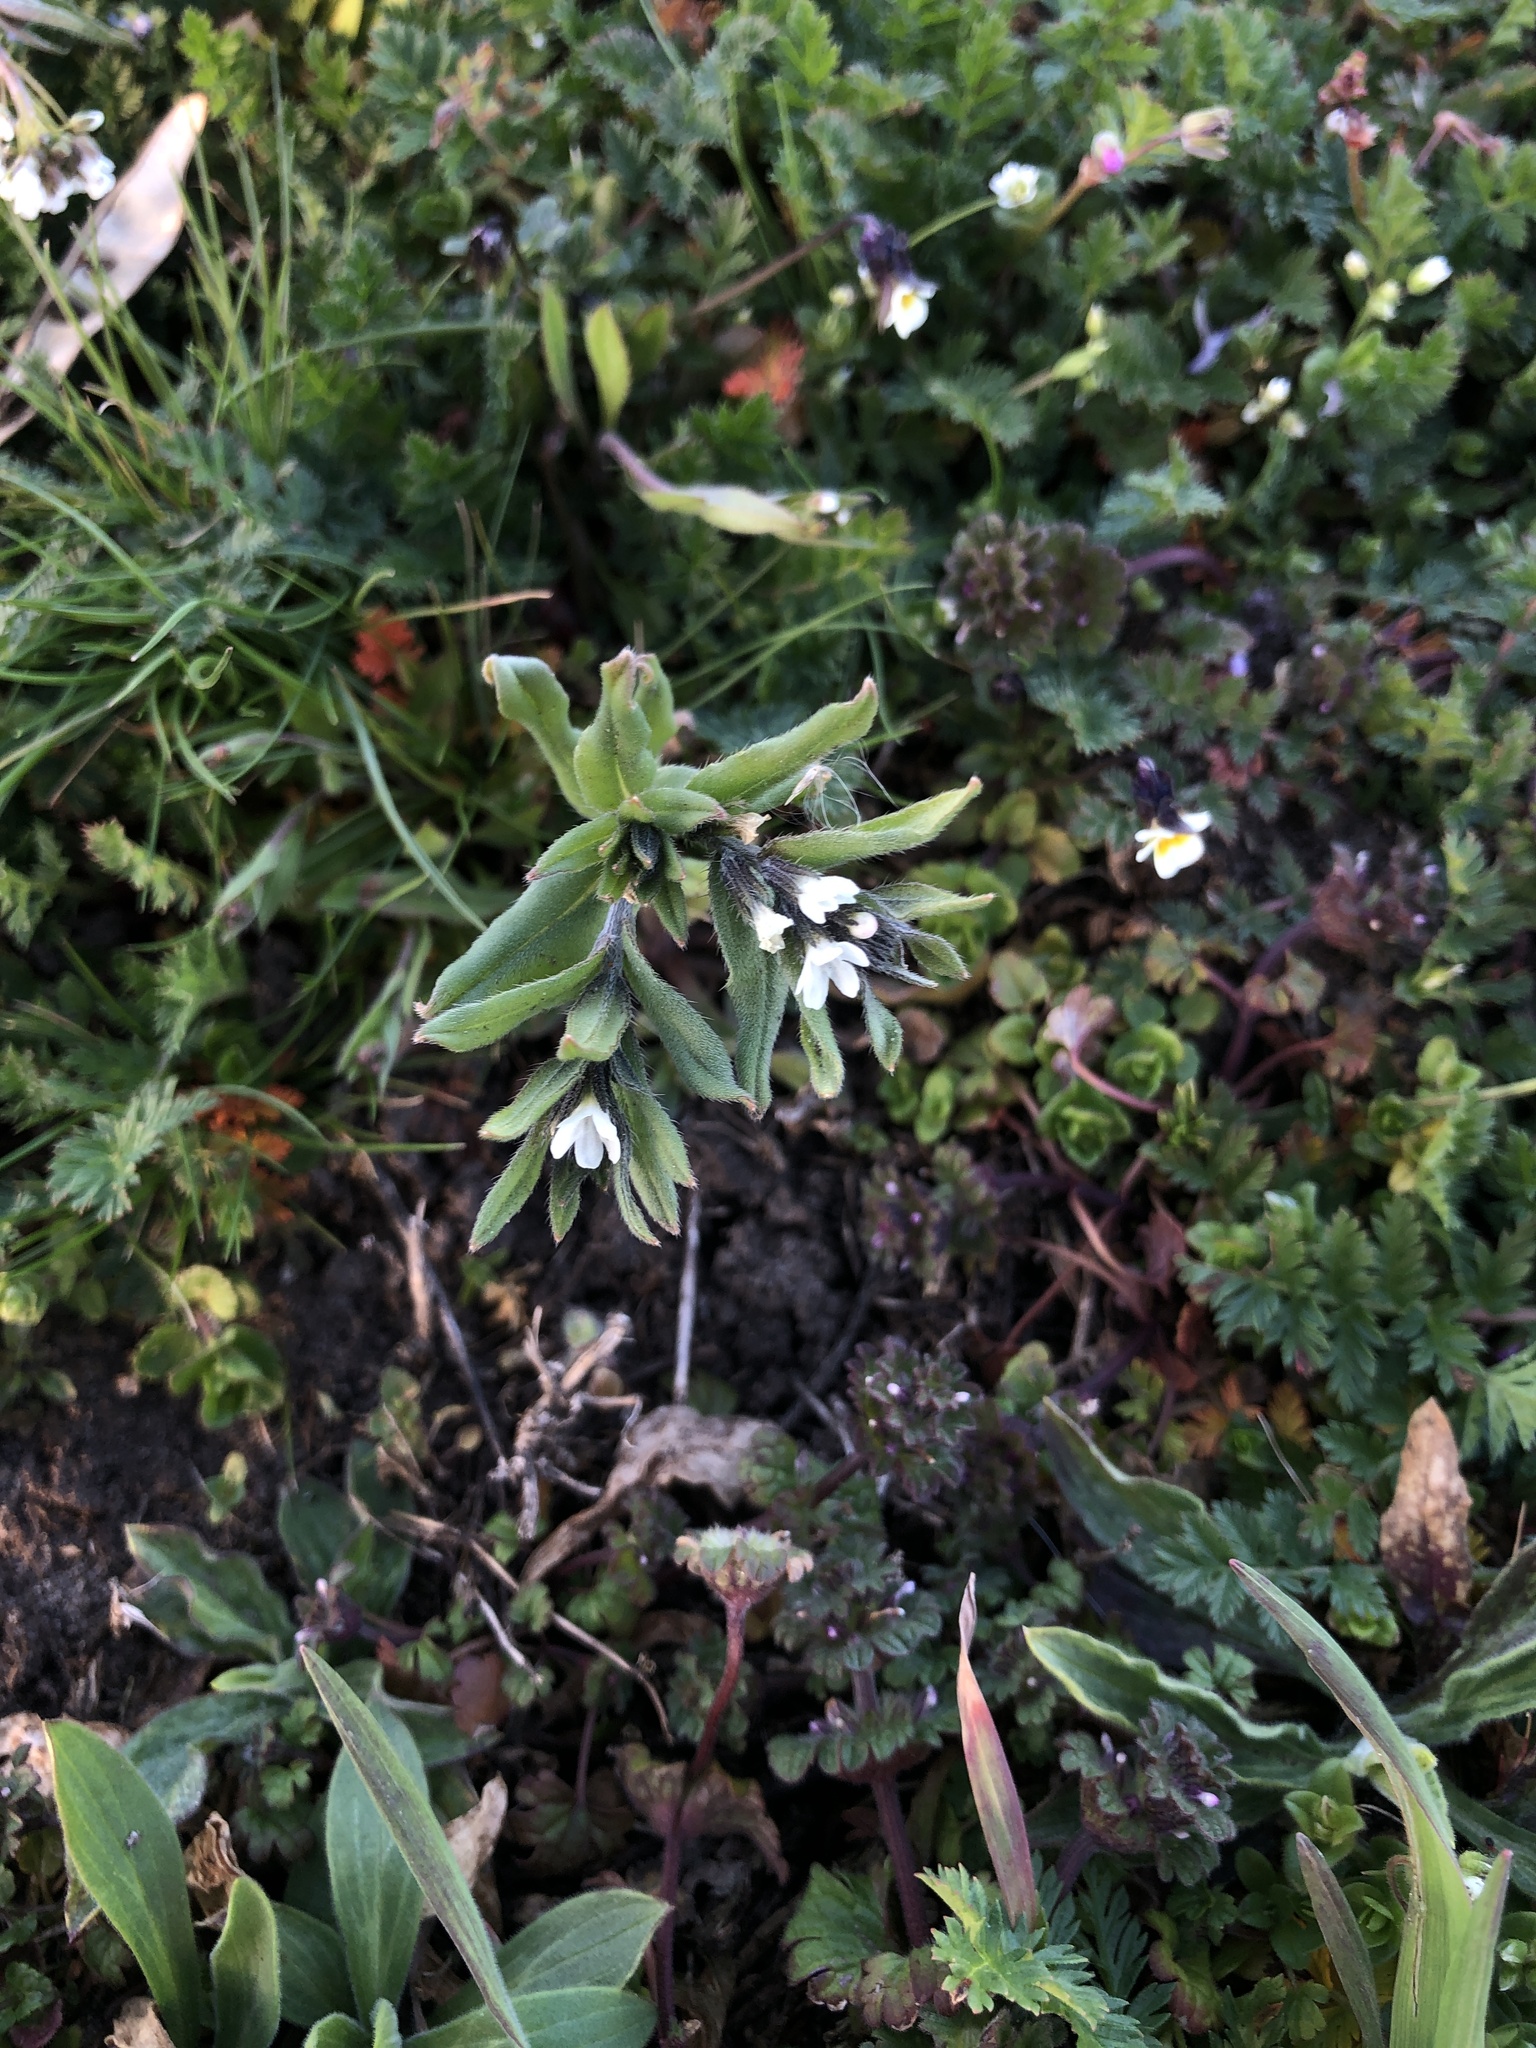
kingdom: Plantae
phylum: Tracheophyta
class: Magnoliopsida
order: Boraginales
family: Boraginaceae
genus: Buglossoides
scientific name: Buglossoides arvensis
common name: Corn gromwell
